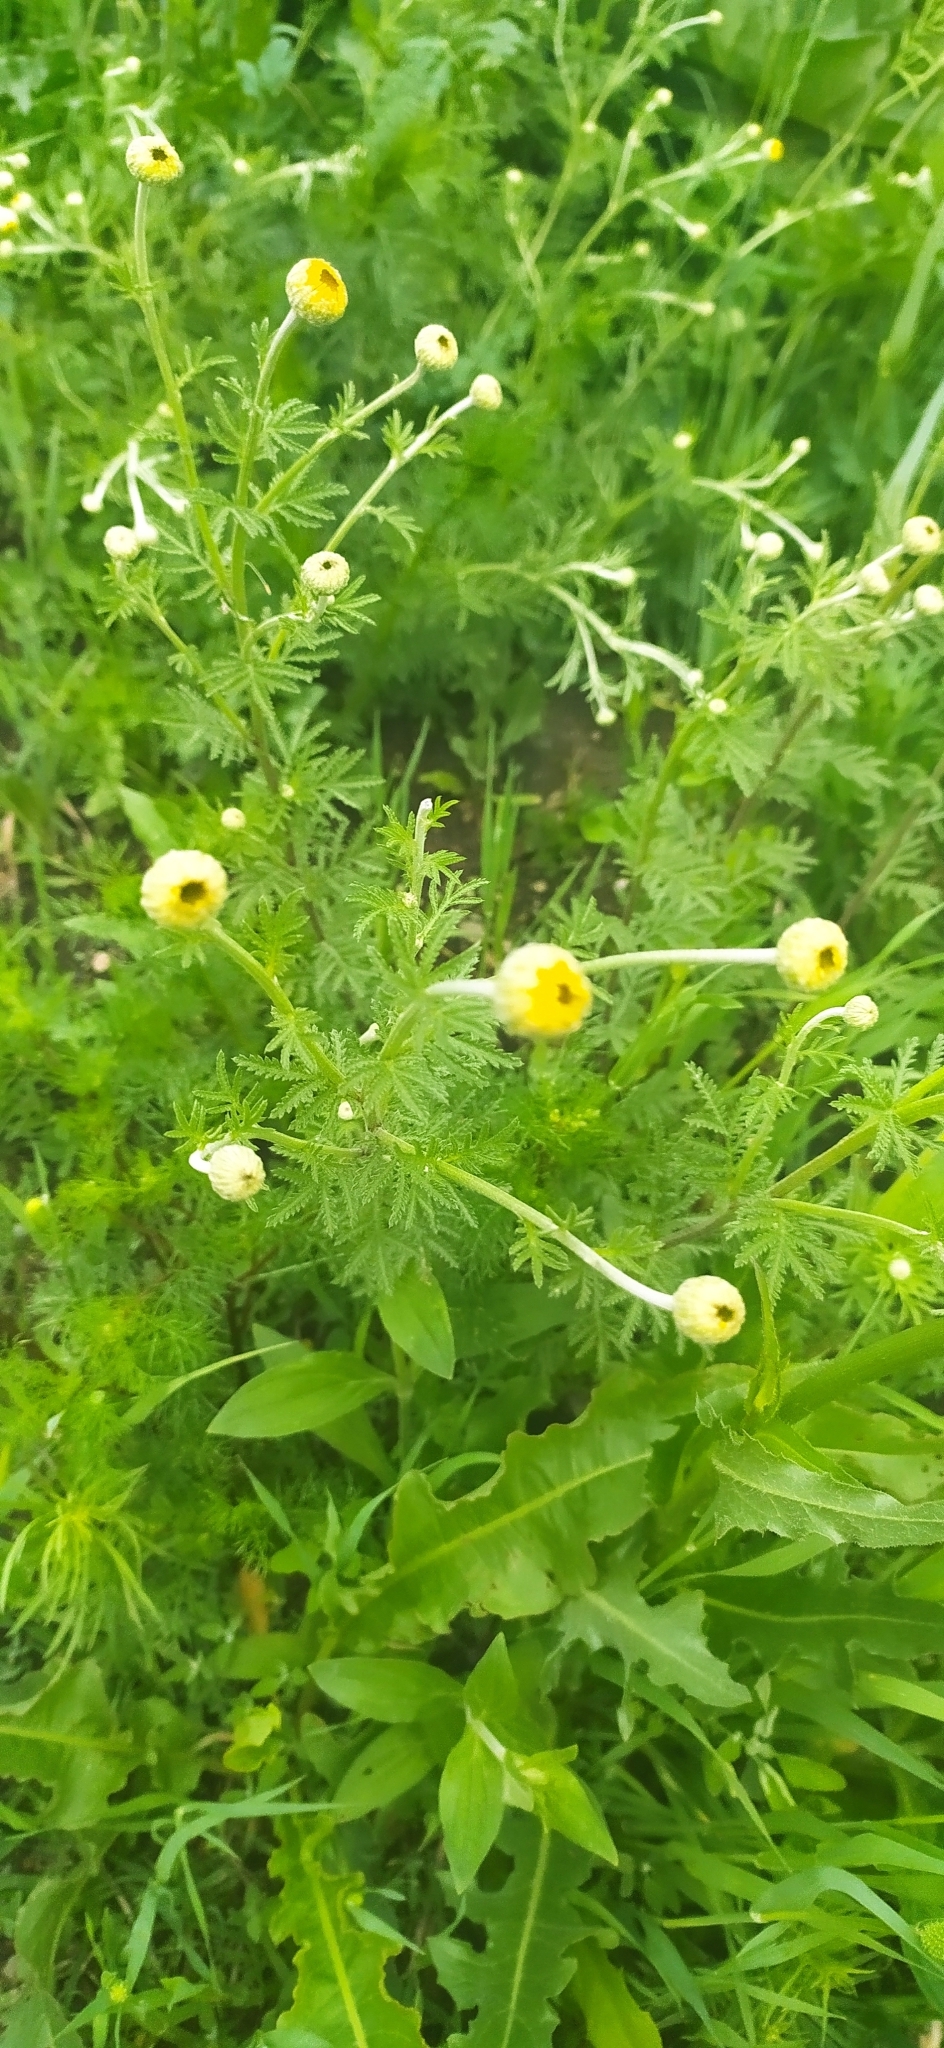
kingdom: Plantae
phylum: Tracheophyta
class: Magnoliopsida
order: Asterales
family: Asteraceae
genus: Cota
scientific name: Cota tinctoria
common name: Golden chamomile
